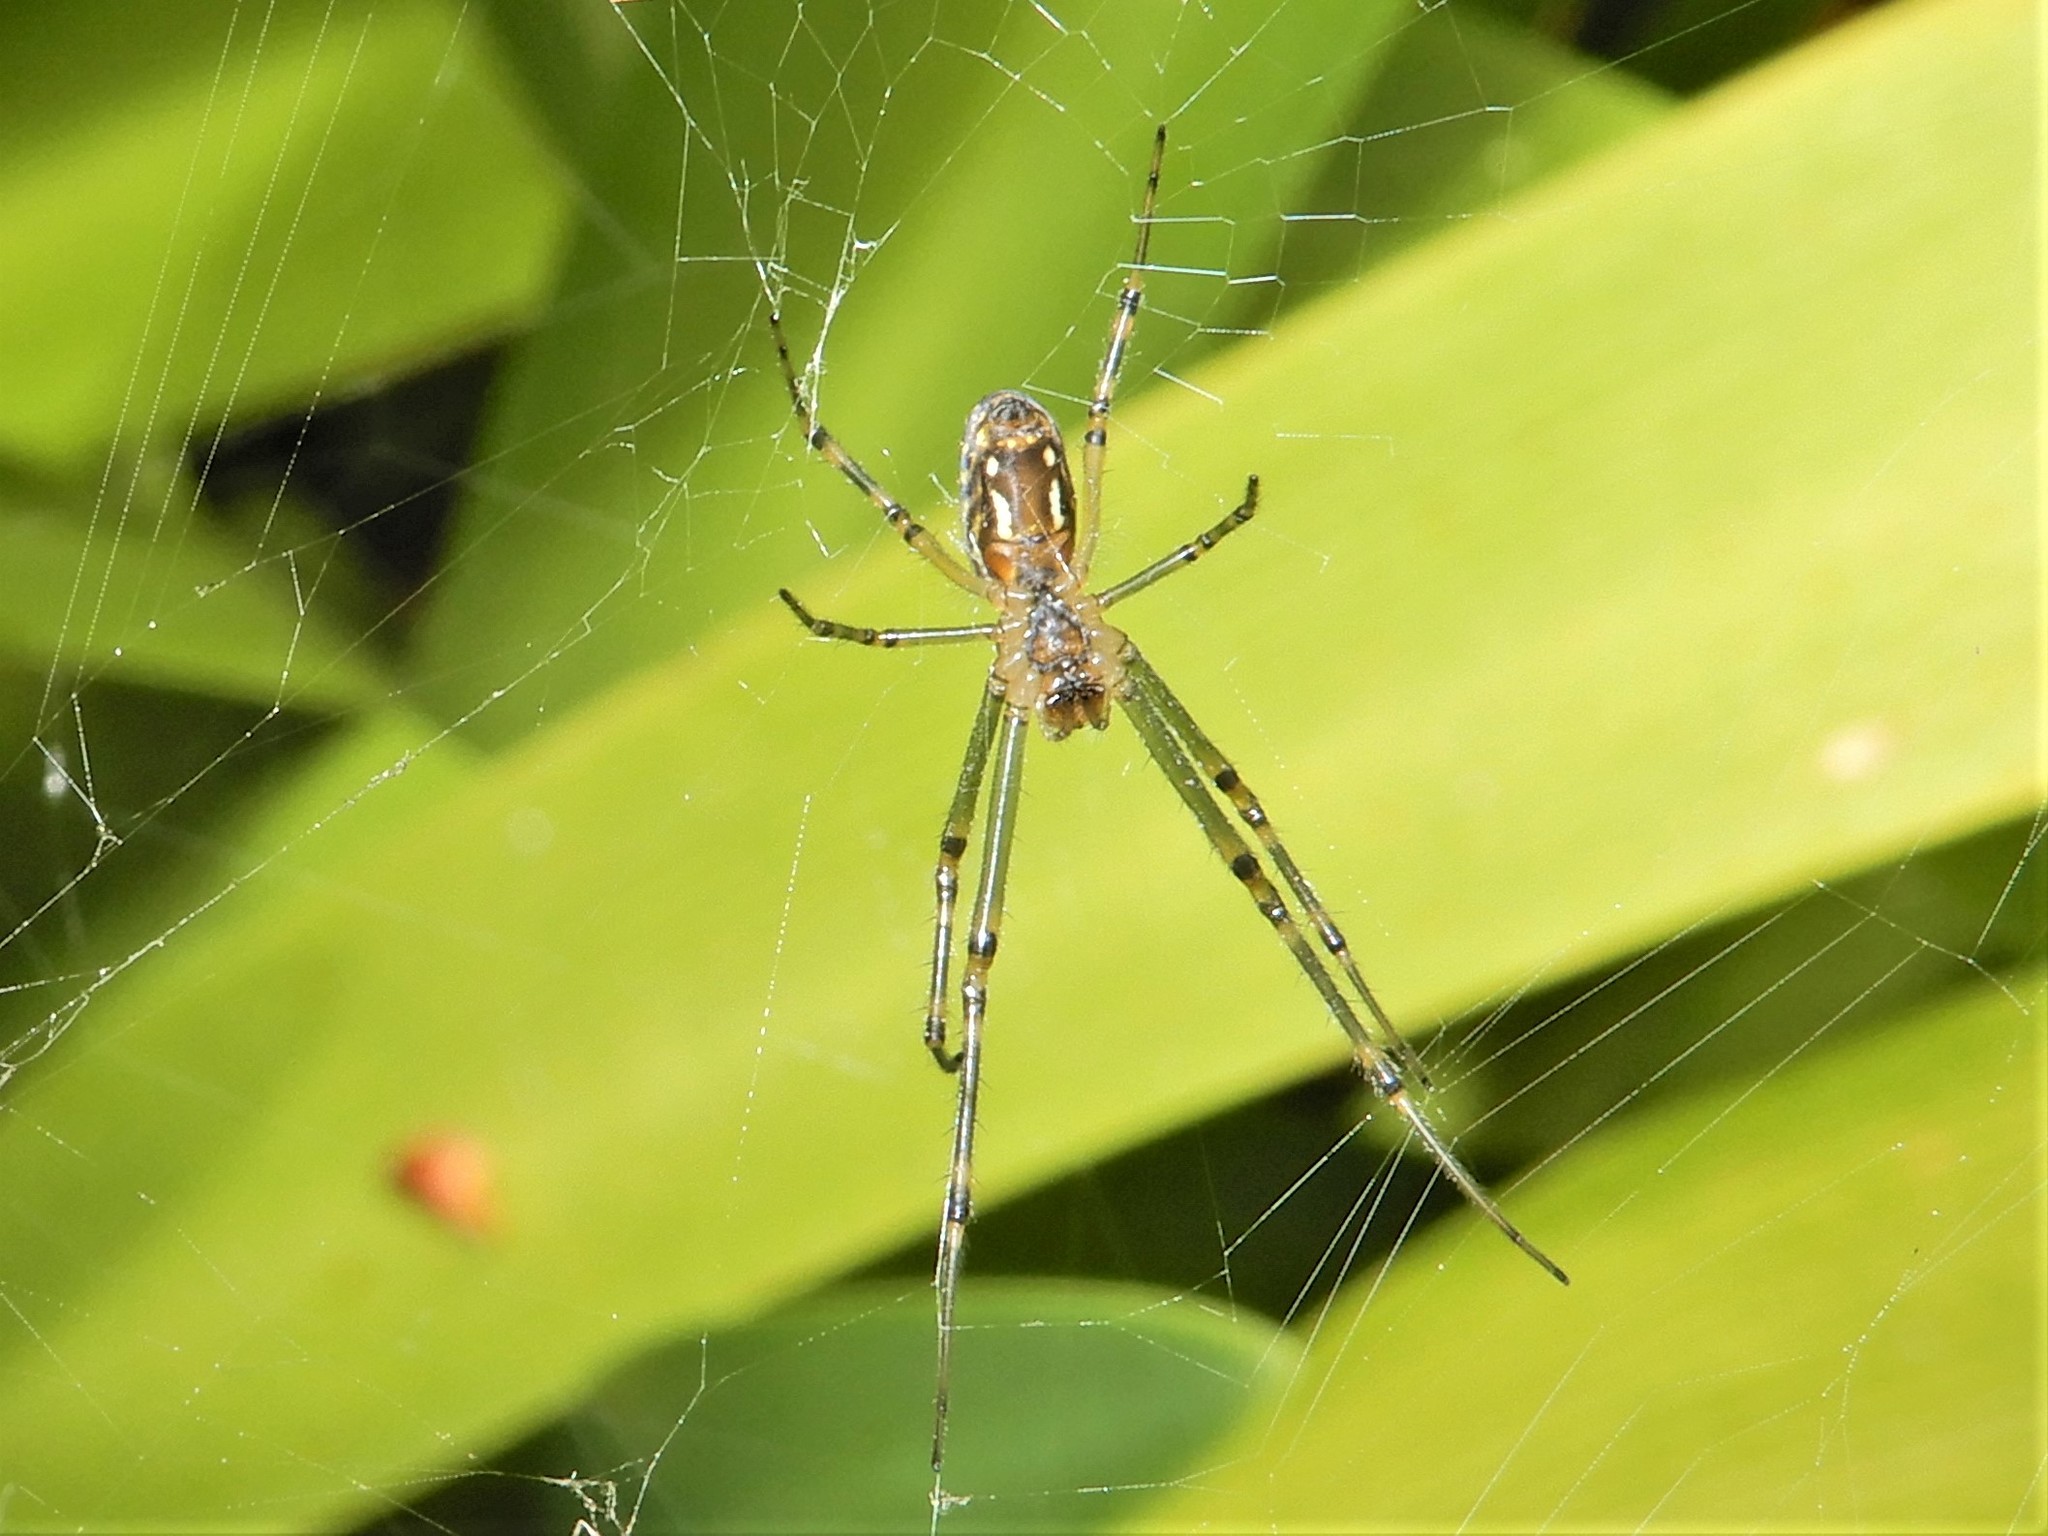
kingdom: Animalia
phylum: Arthropoda
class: Arachnida
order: Araneae
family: Tetragnathidae
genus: Leucauge
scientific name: Leucauge dromedaria
